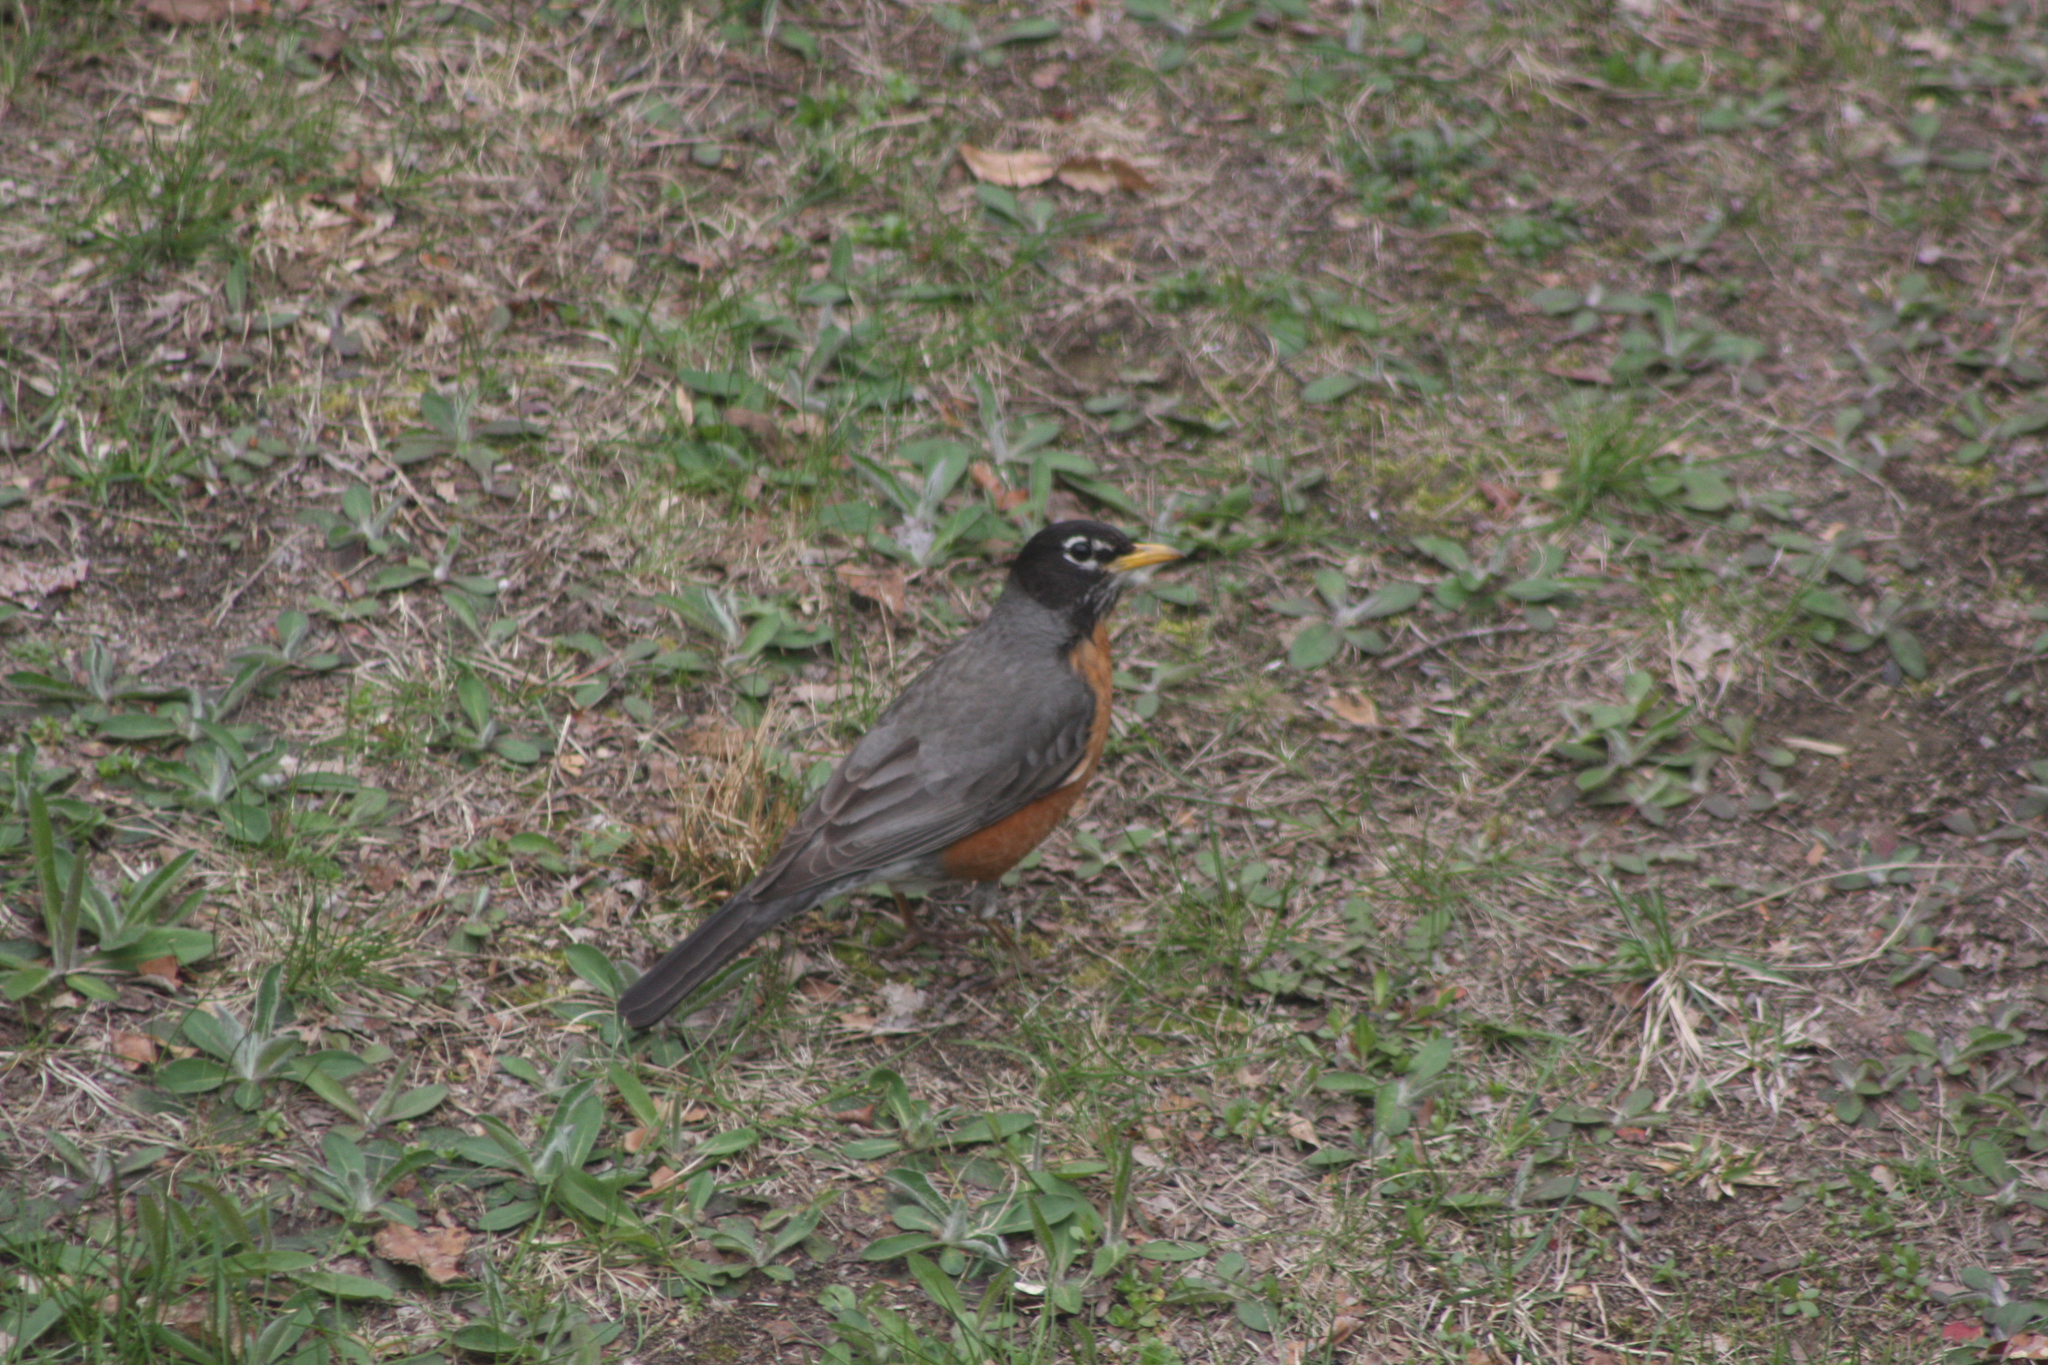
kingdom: Animalia
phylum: Chordata
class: Aves
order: Passeriformes
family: Turdidae
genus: Turdus
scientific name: Turdus migratorius
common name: American robin
